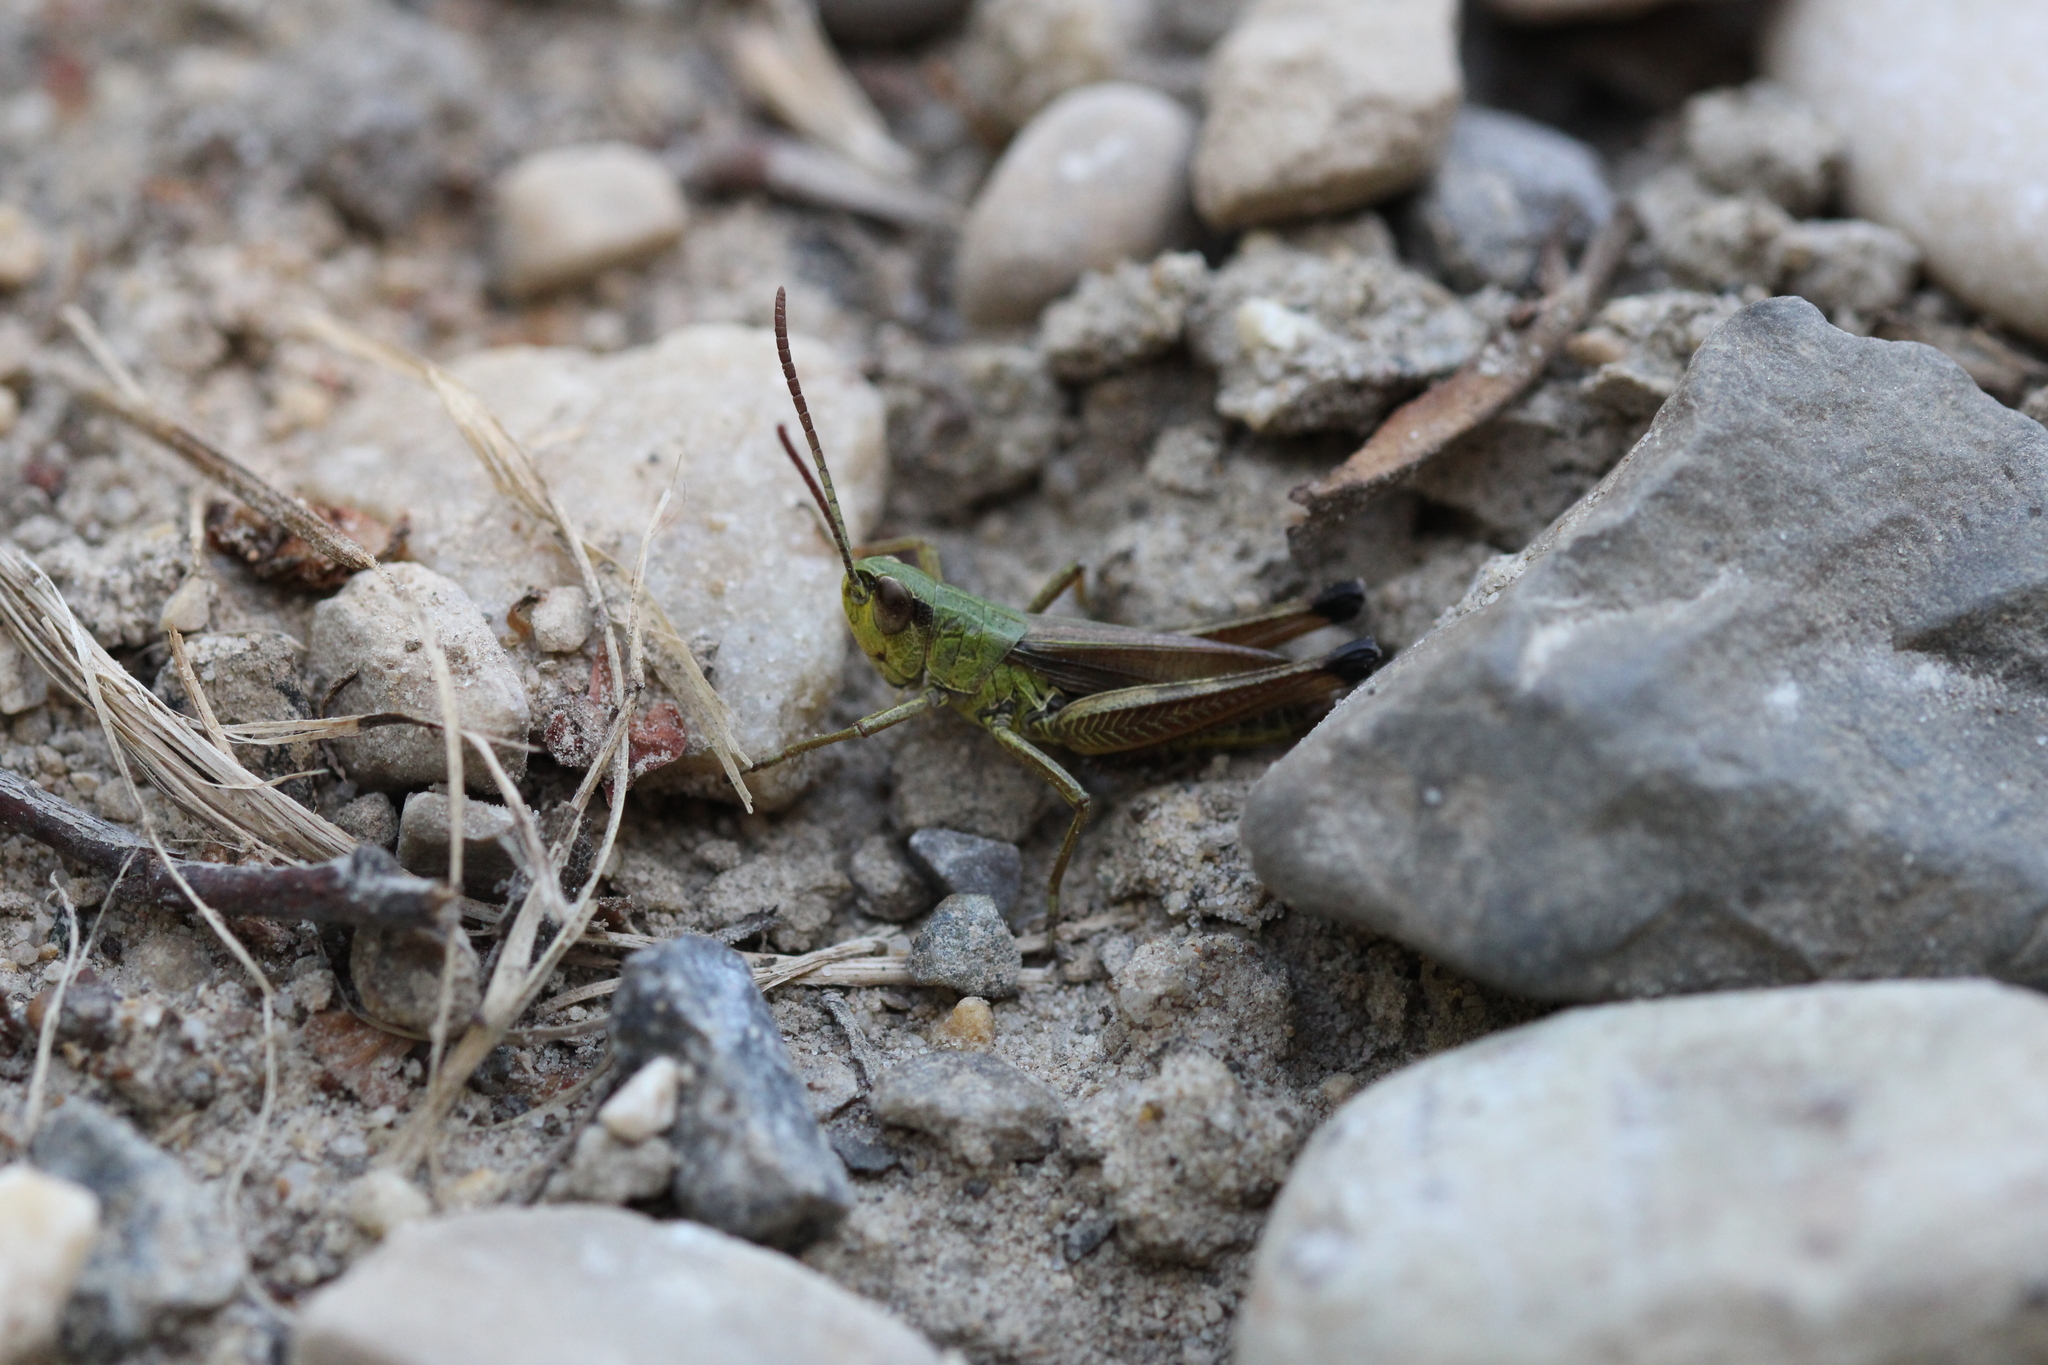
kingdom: Animalia
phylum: Arthropoda
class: Insecta
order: Orthoptera
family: Acrididae
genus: Pseudochorthippus
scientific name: Pseudochorthippus parallelus
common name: Meadow grasshopper
